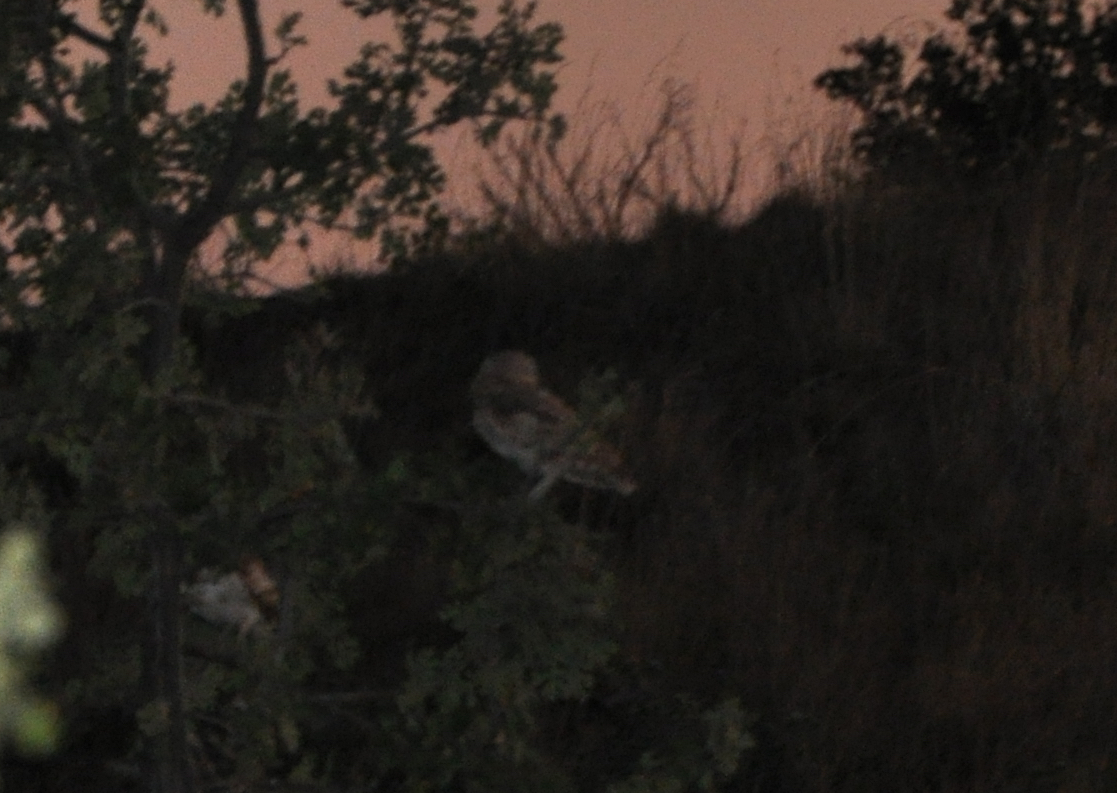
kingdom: Animalia
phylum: Chordata
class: Aves
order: Strigiformes
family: Strigidae
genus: Athene
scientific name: Athene cunicularia
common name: Burrowing owl
